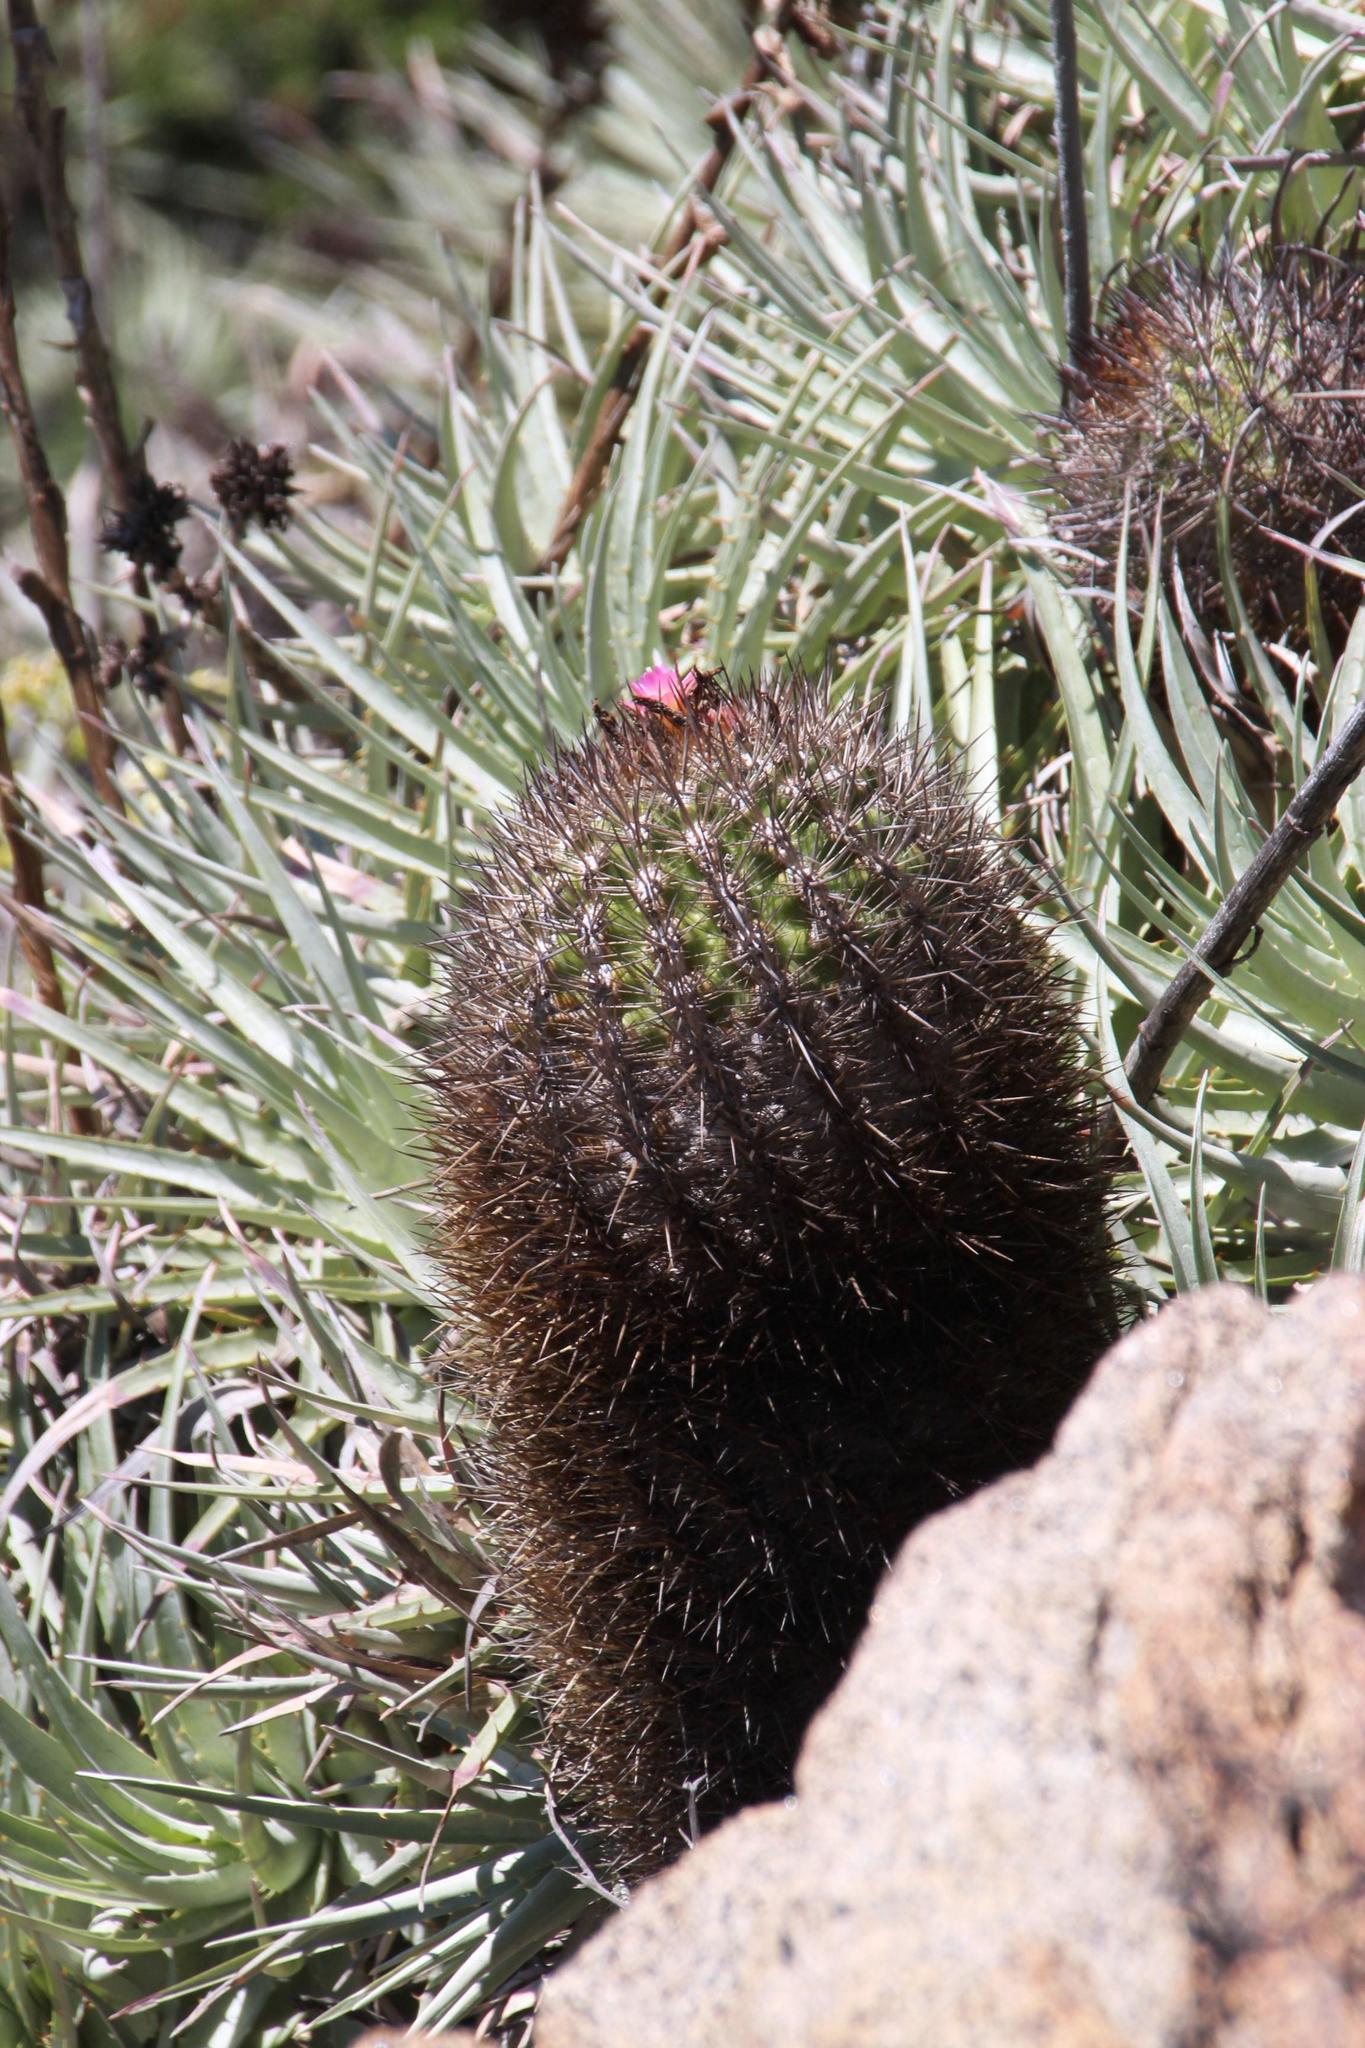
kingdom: Plantae
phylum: Tracheophyta
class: Magnoliopsida
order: Caryophyllales
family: Cactaceae
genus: Eriosyce
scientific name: Eriosyce subgibbosa
